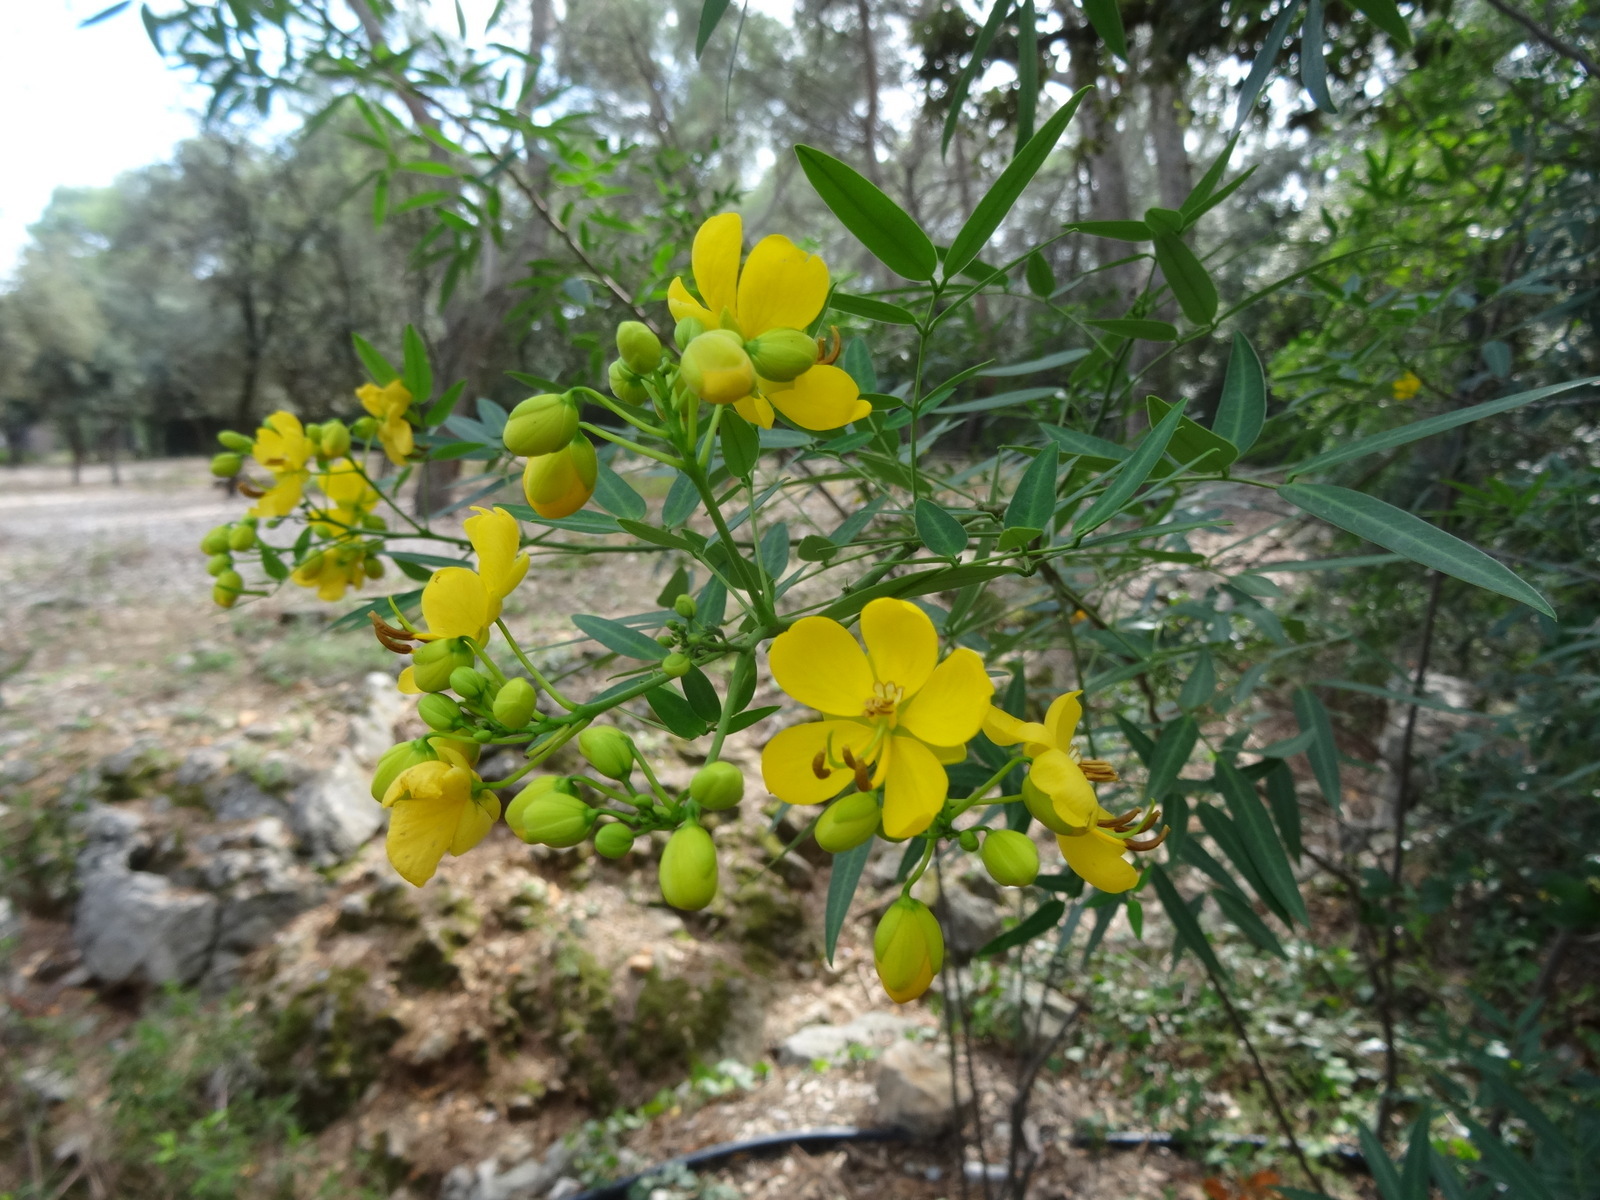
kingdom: Plantae
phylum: Tracheophyta
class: Magnoliopsida
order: Fabales
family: Fabaceae
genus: Senna
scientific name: Senna corymbosa
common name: Argentine senna
